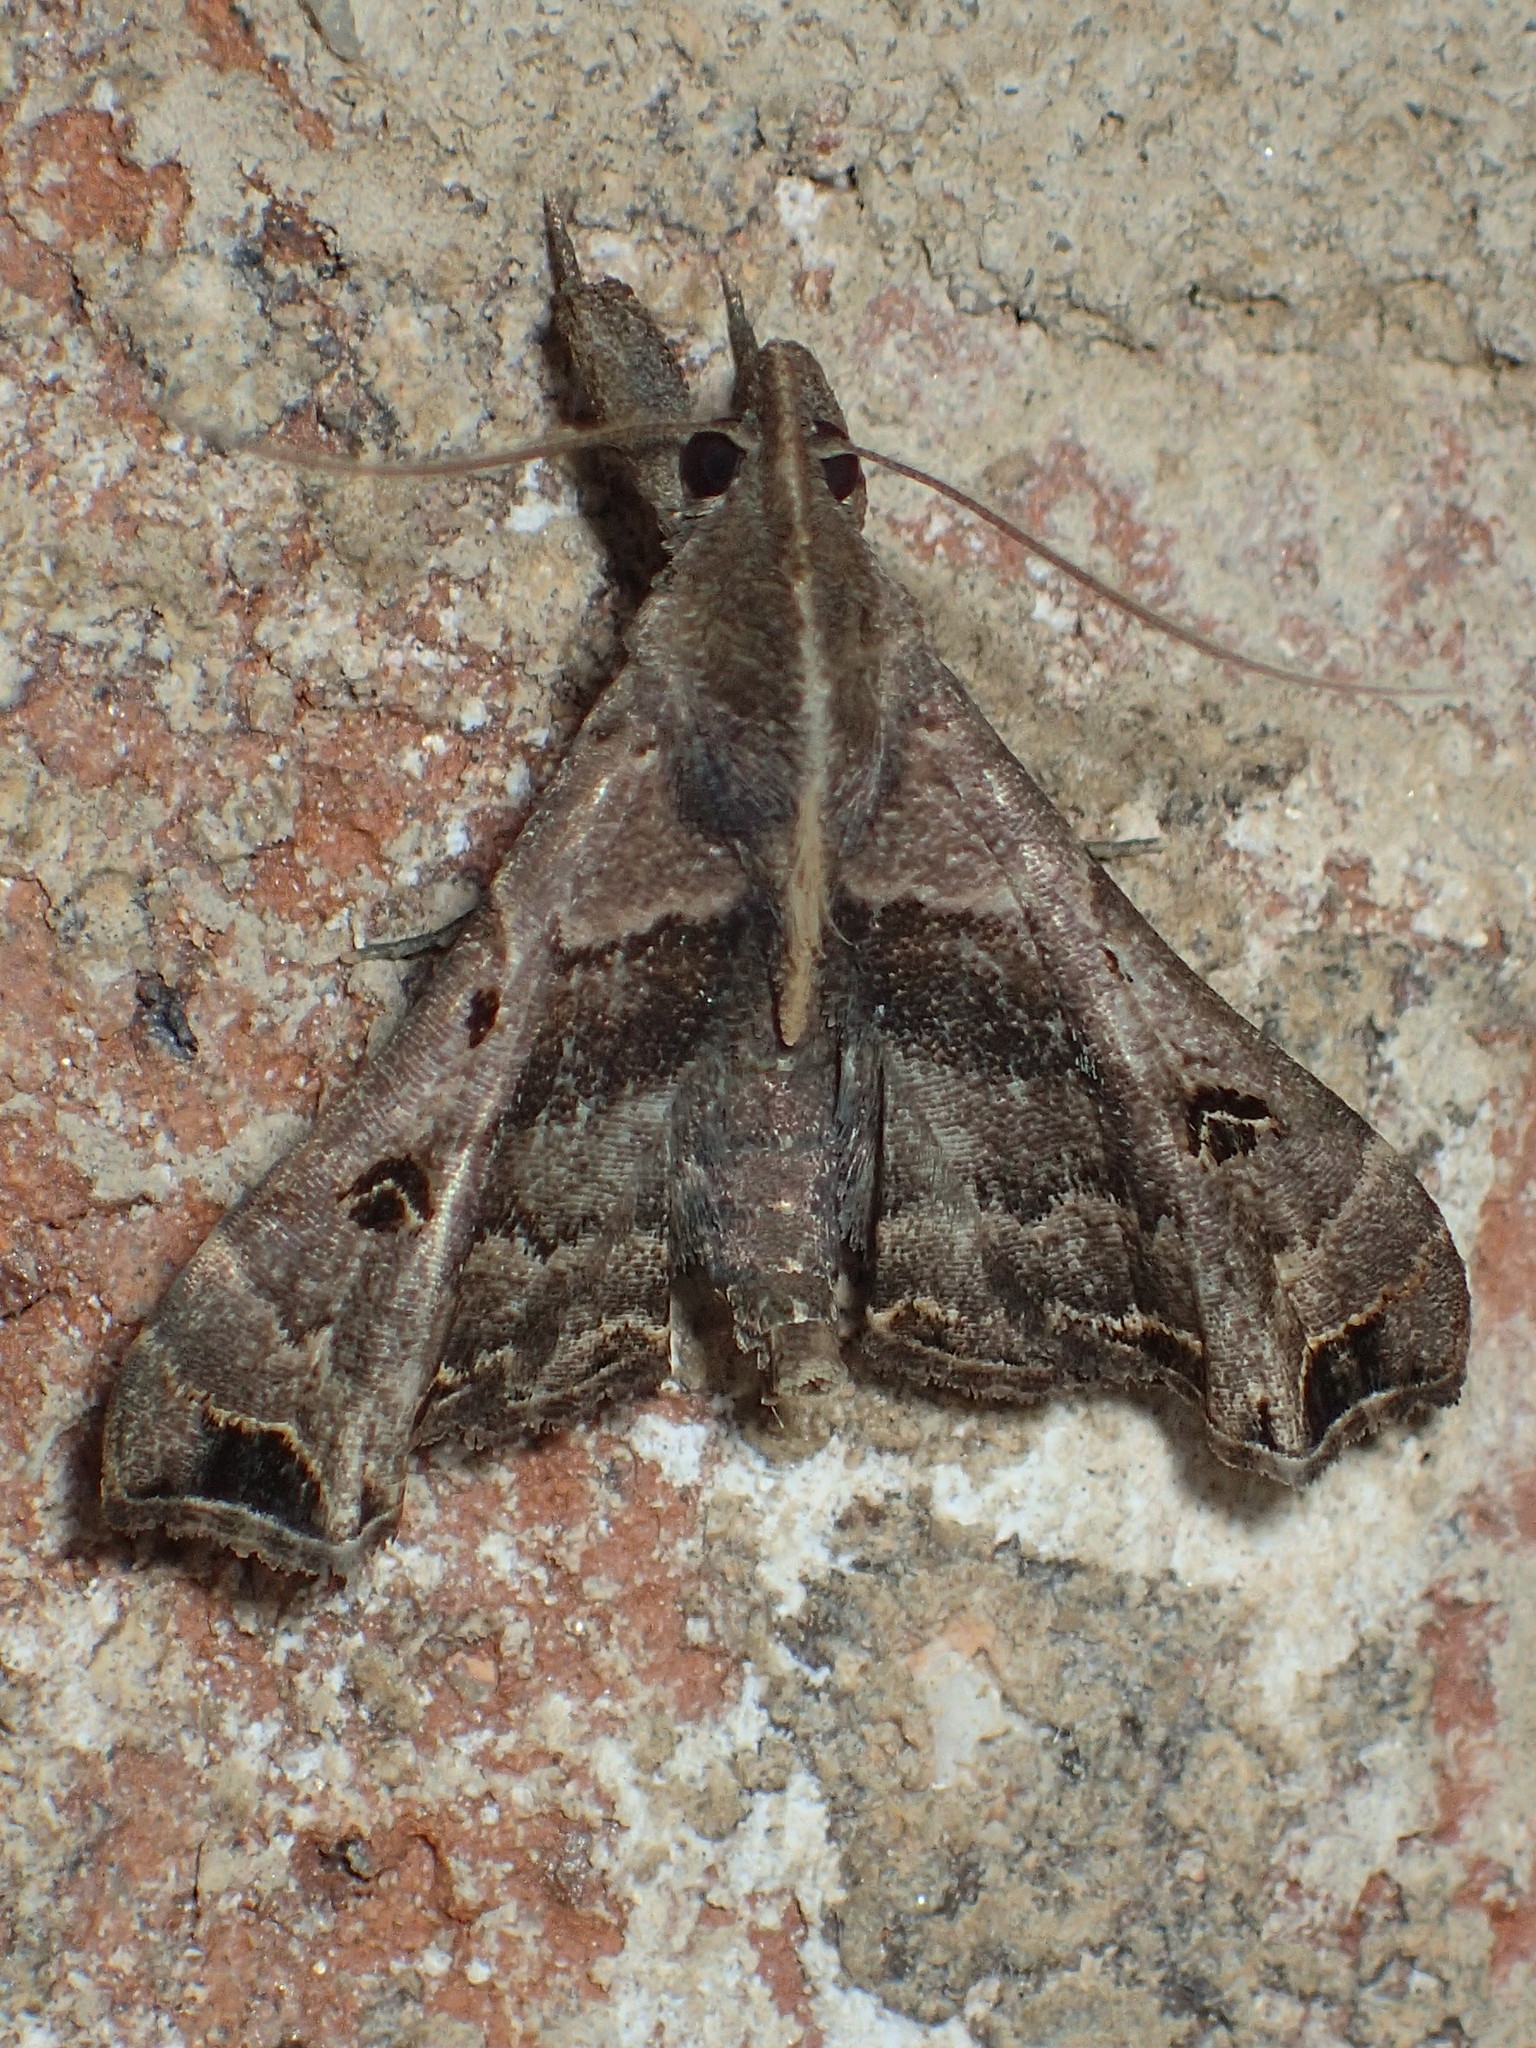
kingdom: Animalia
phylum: Arthropoda
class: Insecta
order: Lepidoptera
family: Erebidae
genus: Palthis
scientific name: Palthis asopialis
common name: Faint-spotted palthis moth
